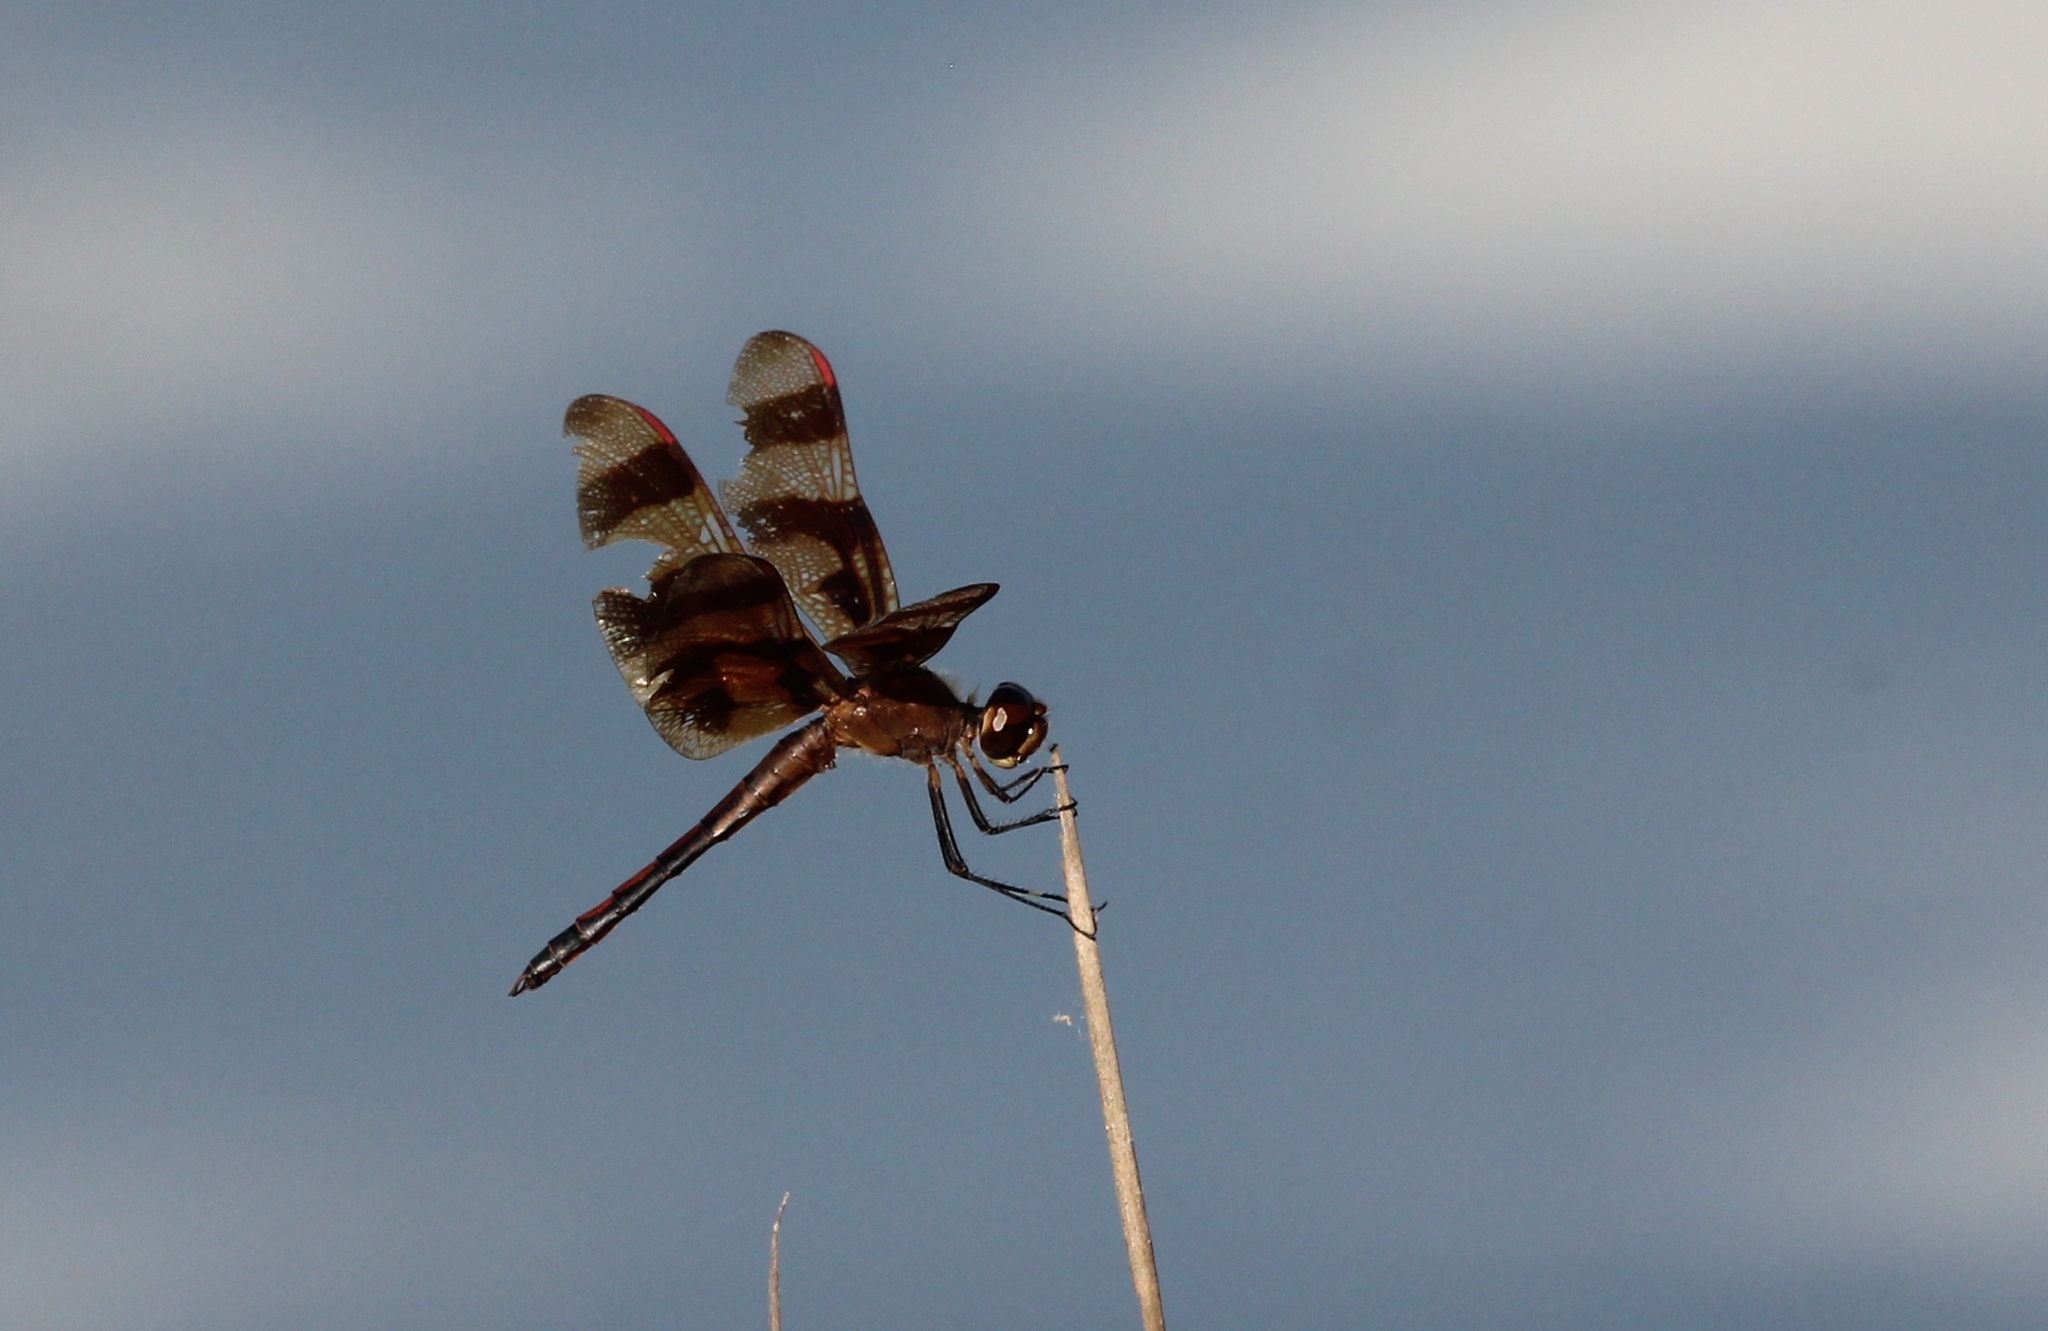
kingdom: Animalia
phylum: Arthropoda
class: Insecta
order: Odonata
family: Libellulidae
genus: Celithemis
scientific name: Celithemis eponina
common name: Halloween pennant
